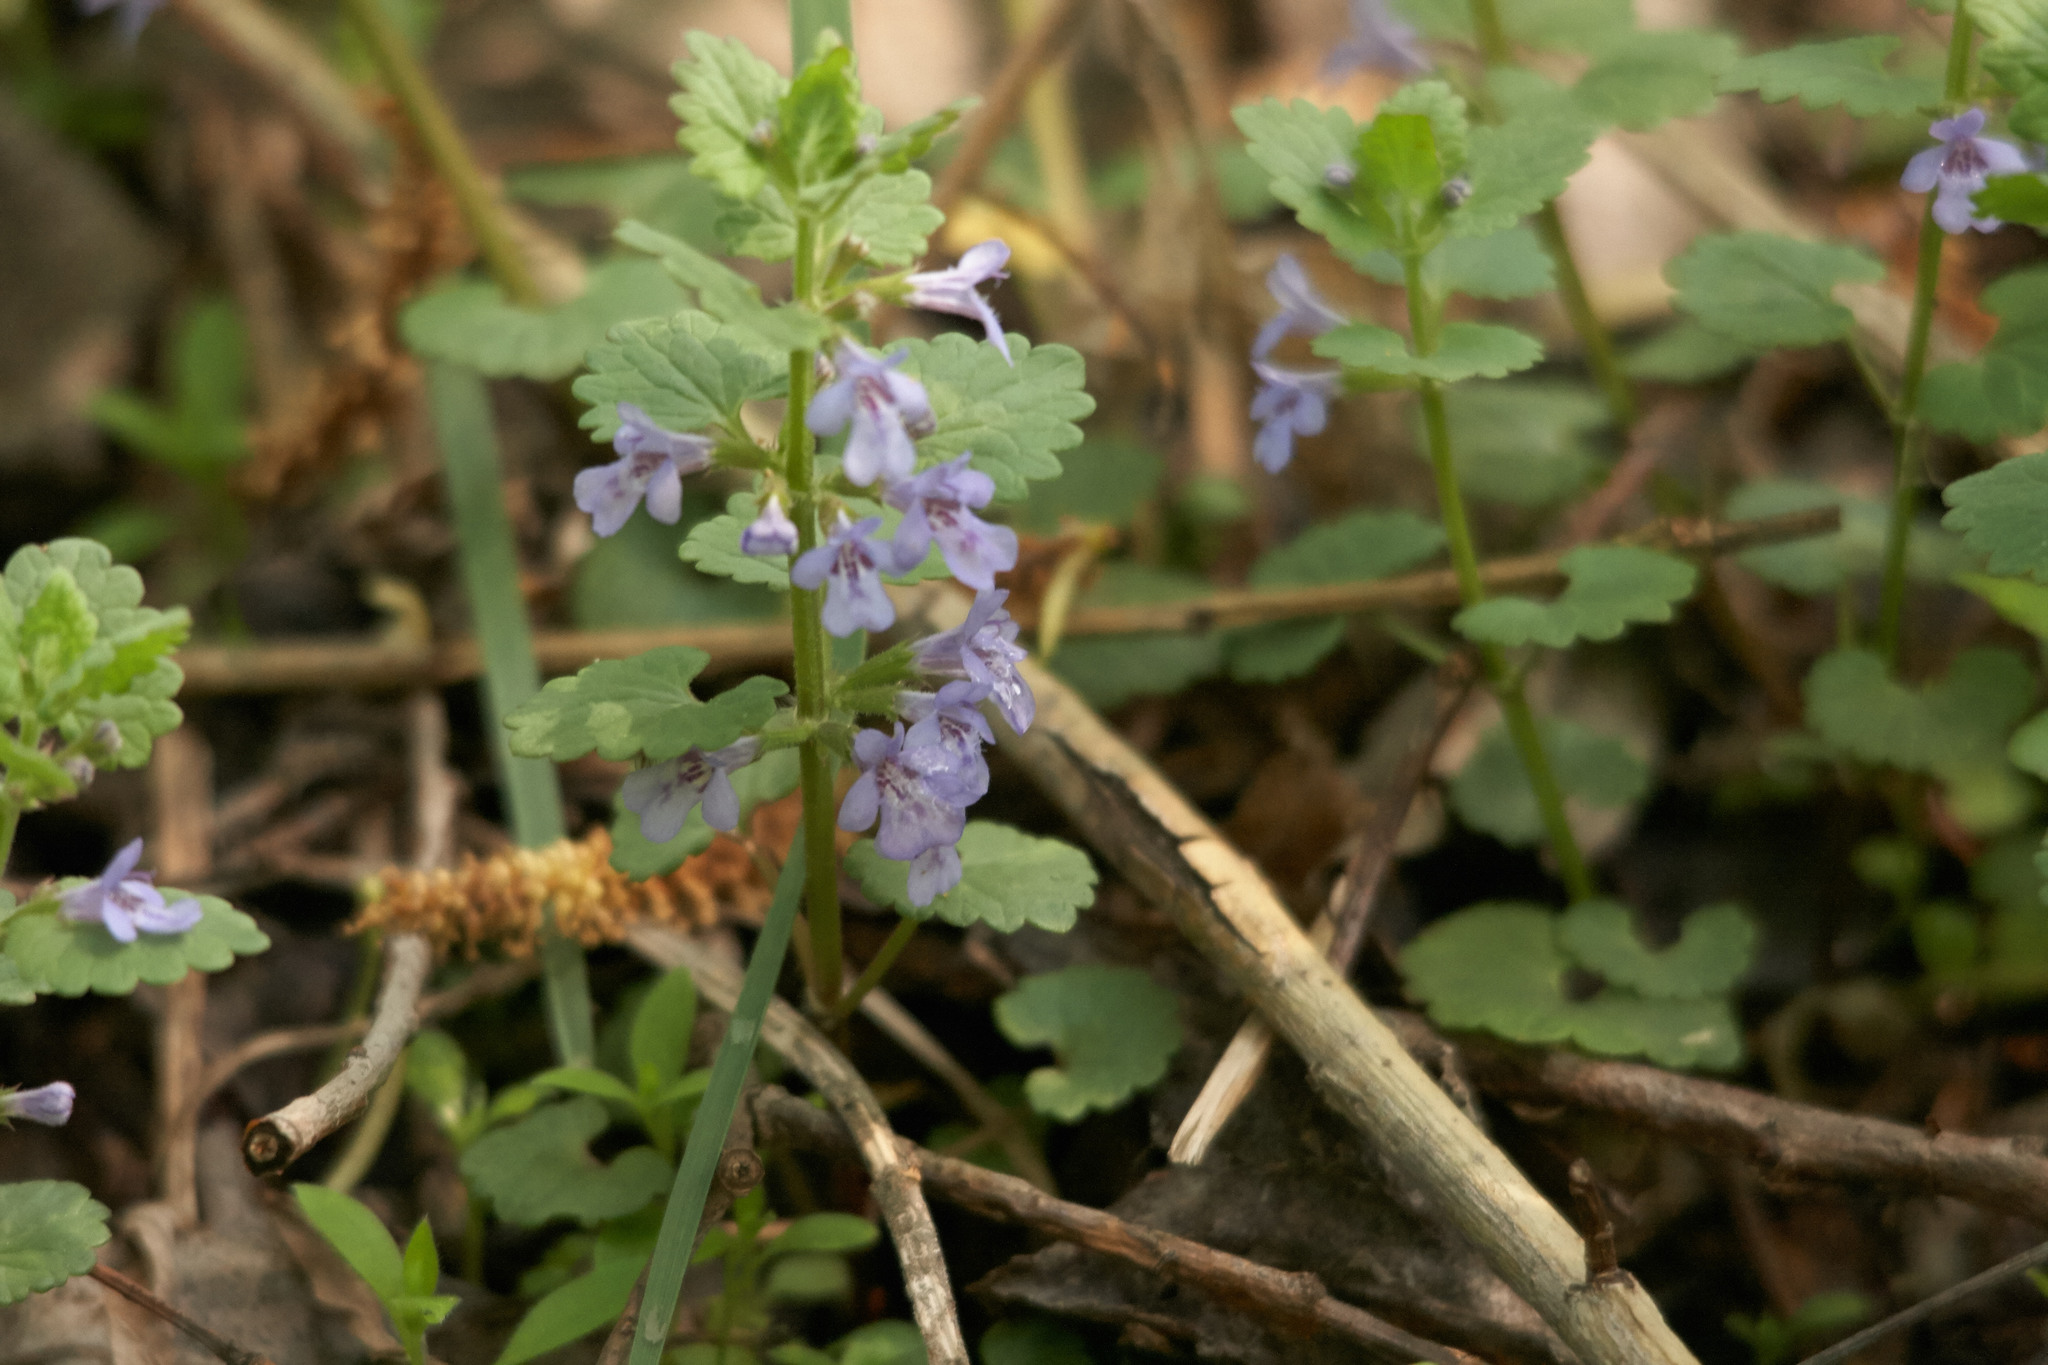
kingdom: Plantae
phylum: Tracheophyta
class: Magnoliopsida
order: Lamiales
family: Lamiaceae
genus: Glechoma
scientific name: Glechoma hederacea
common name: Ground ivy
